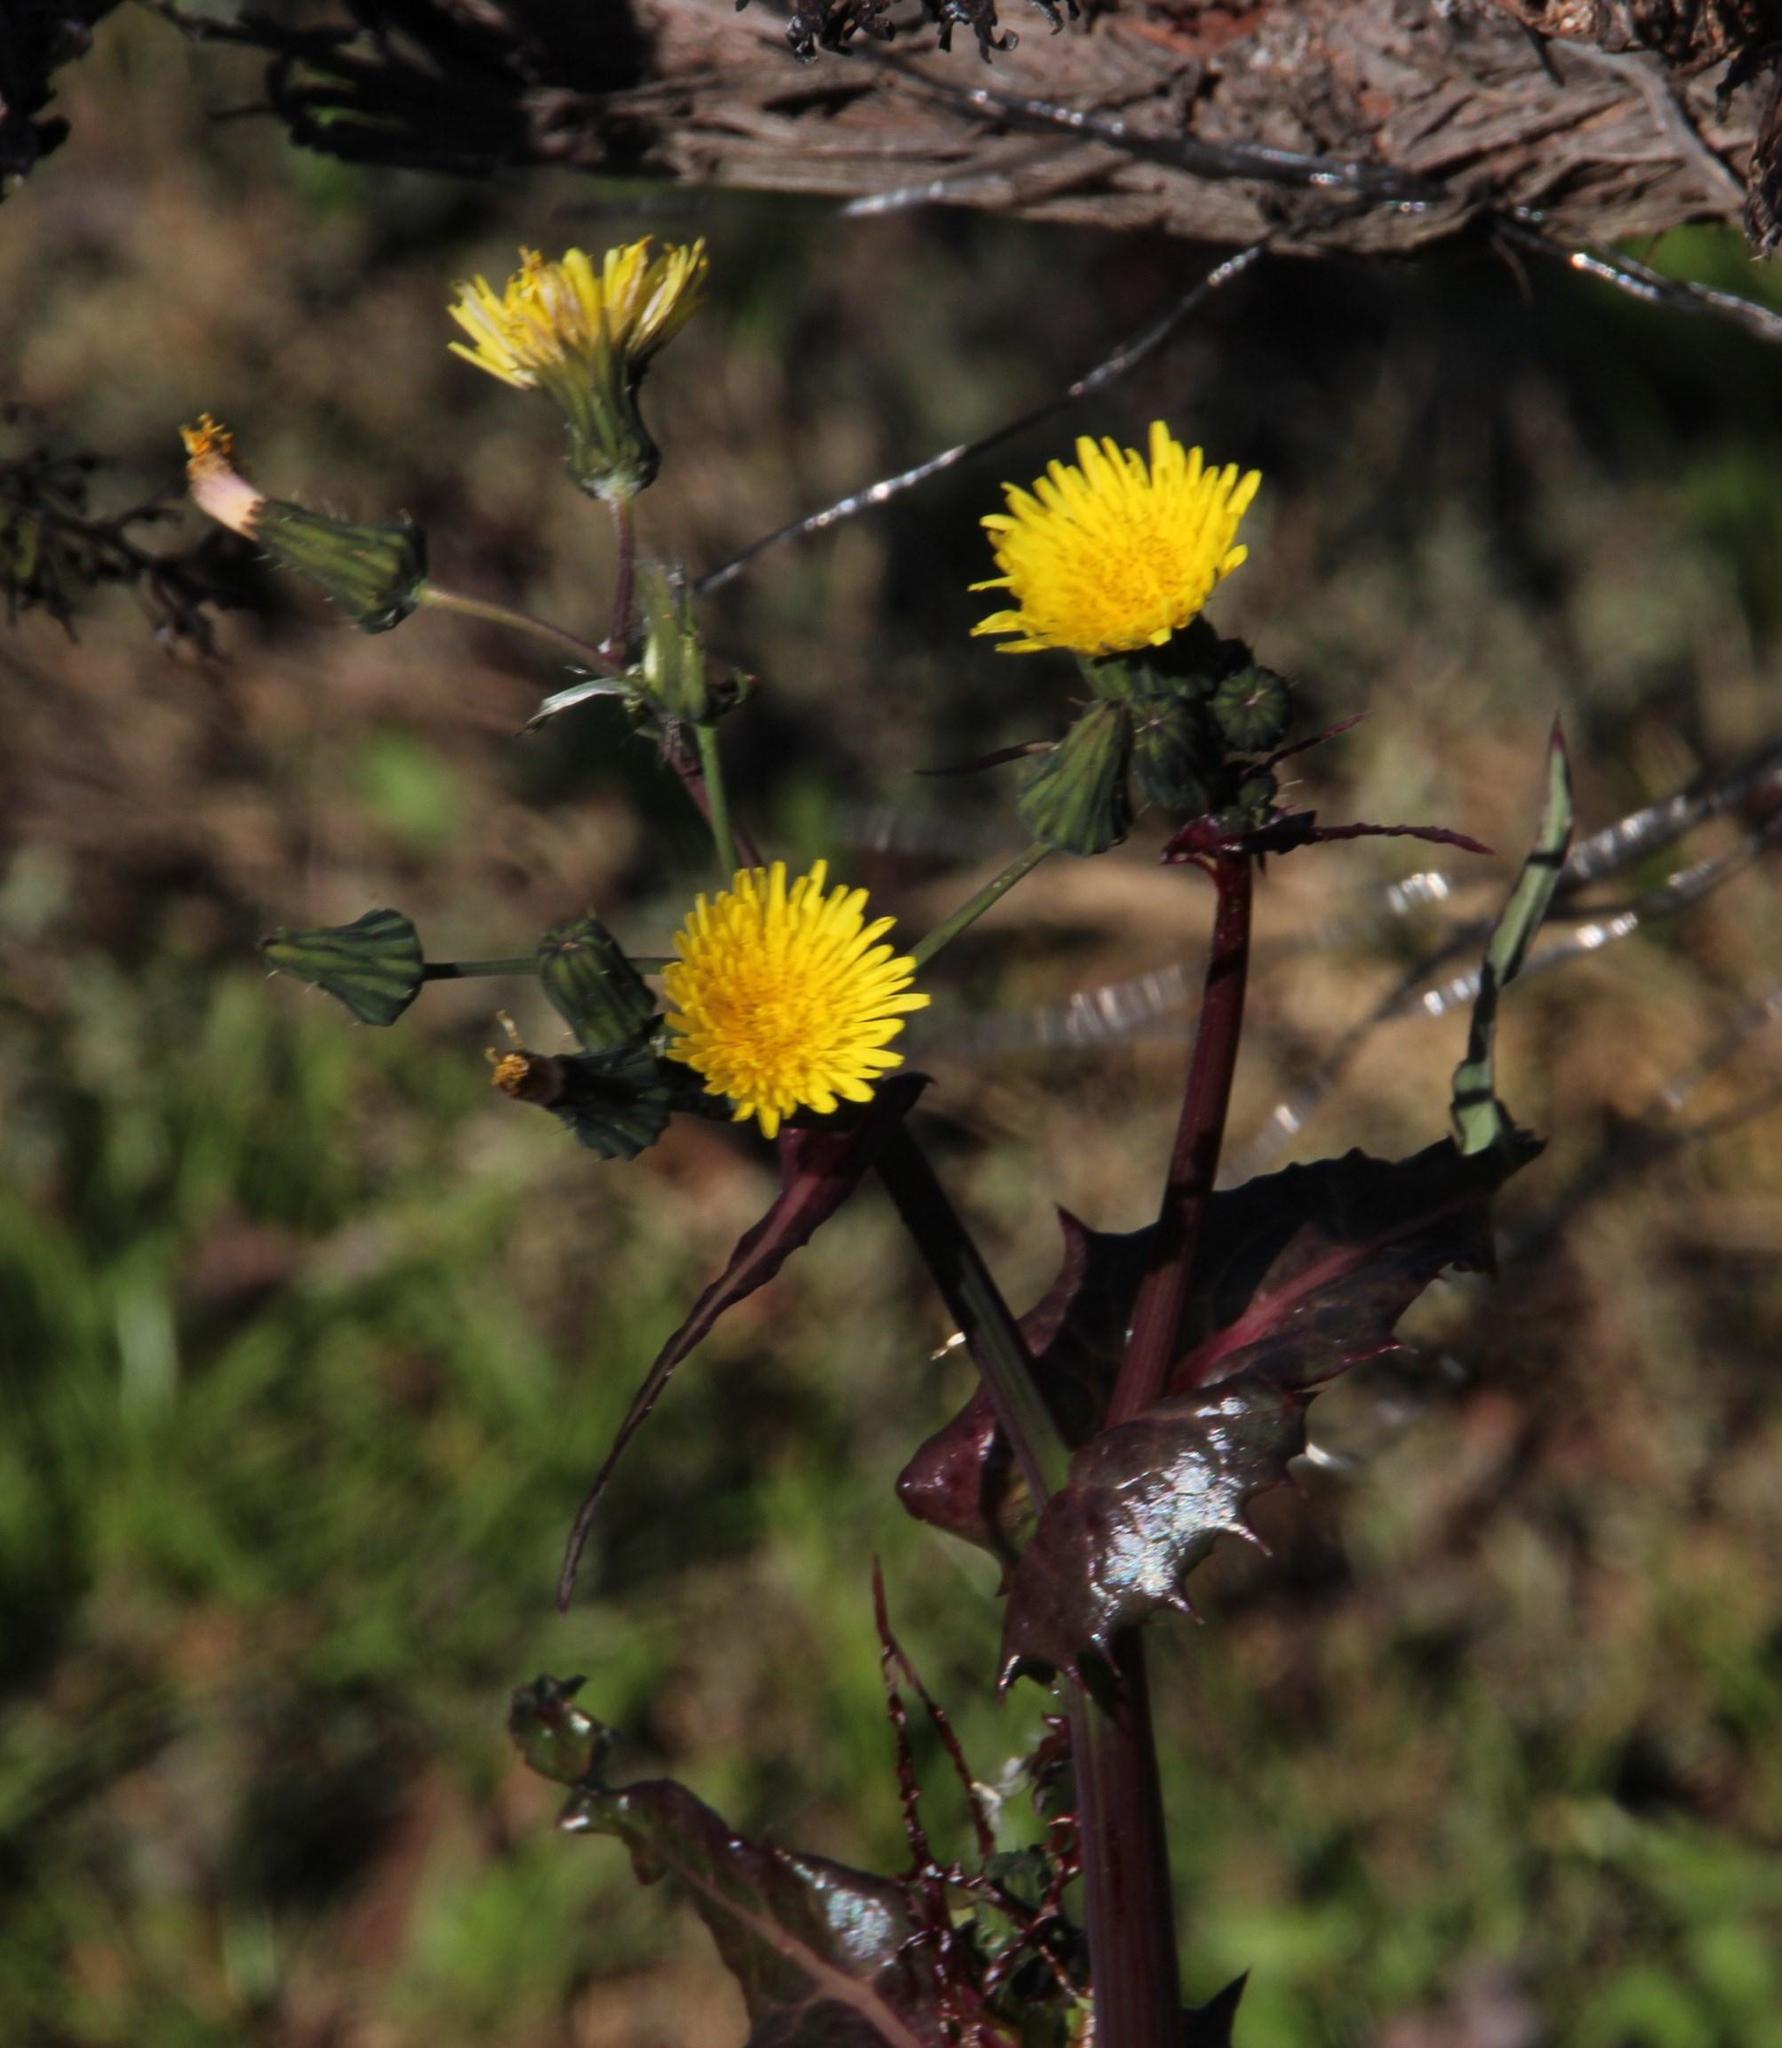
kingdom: Plantae
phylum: Tracheophyta
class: Magnoliopsida
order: Asterales
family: Asteraceae
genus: Sonchus
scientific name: Sonchus asper
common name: Prickly sow-thistle
